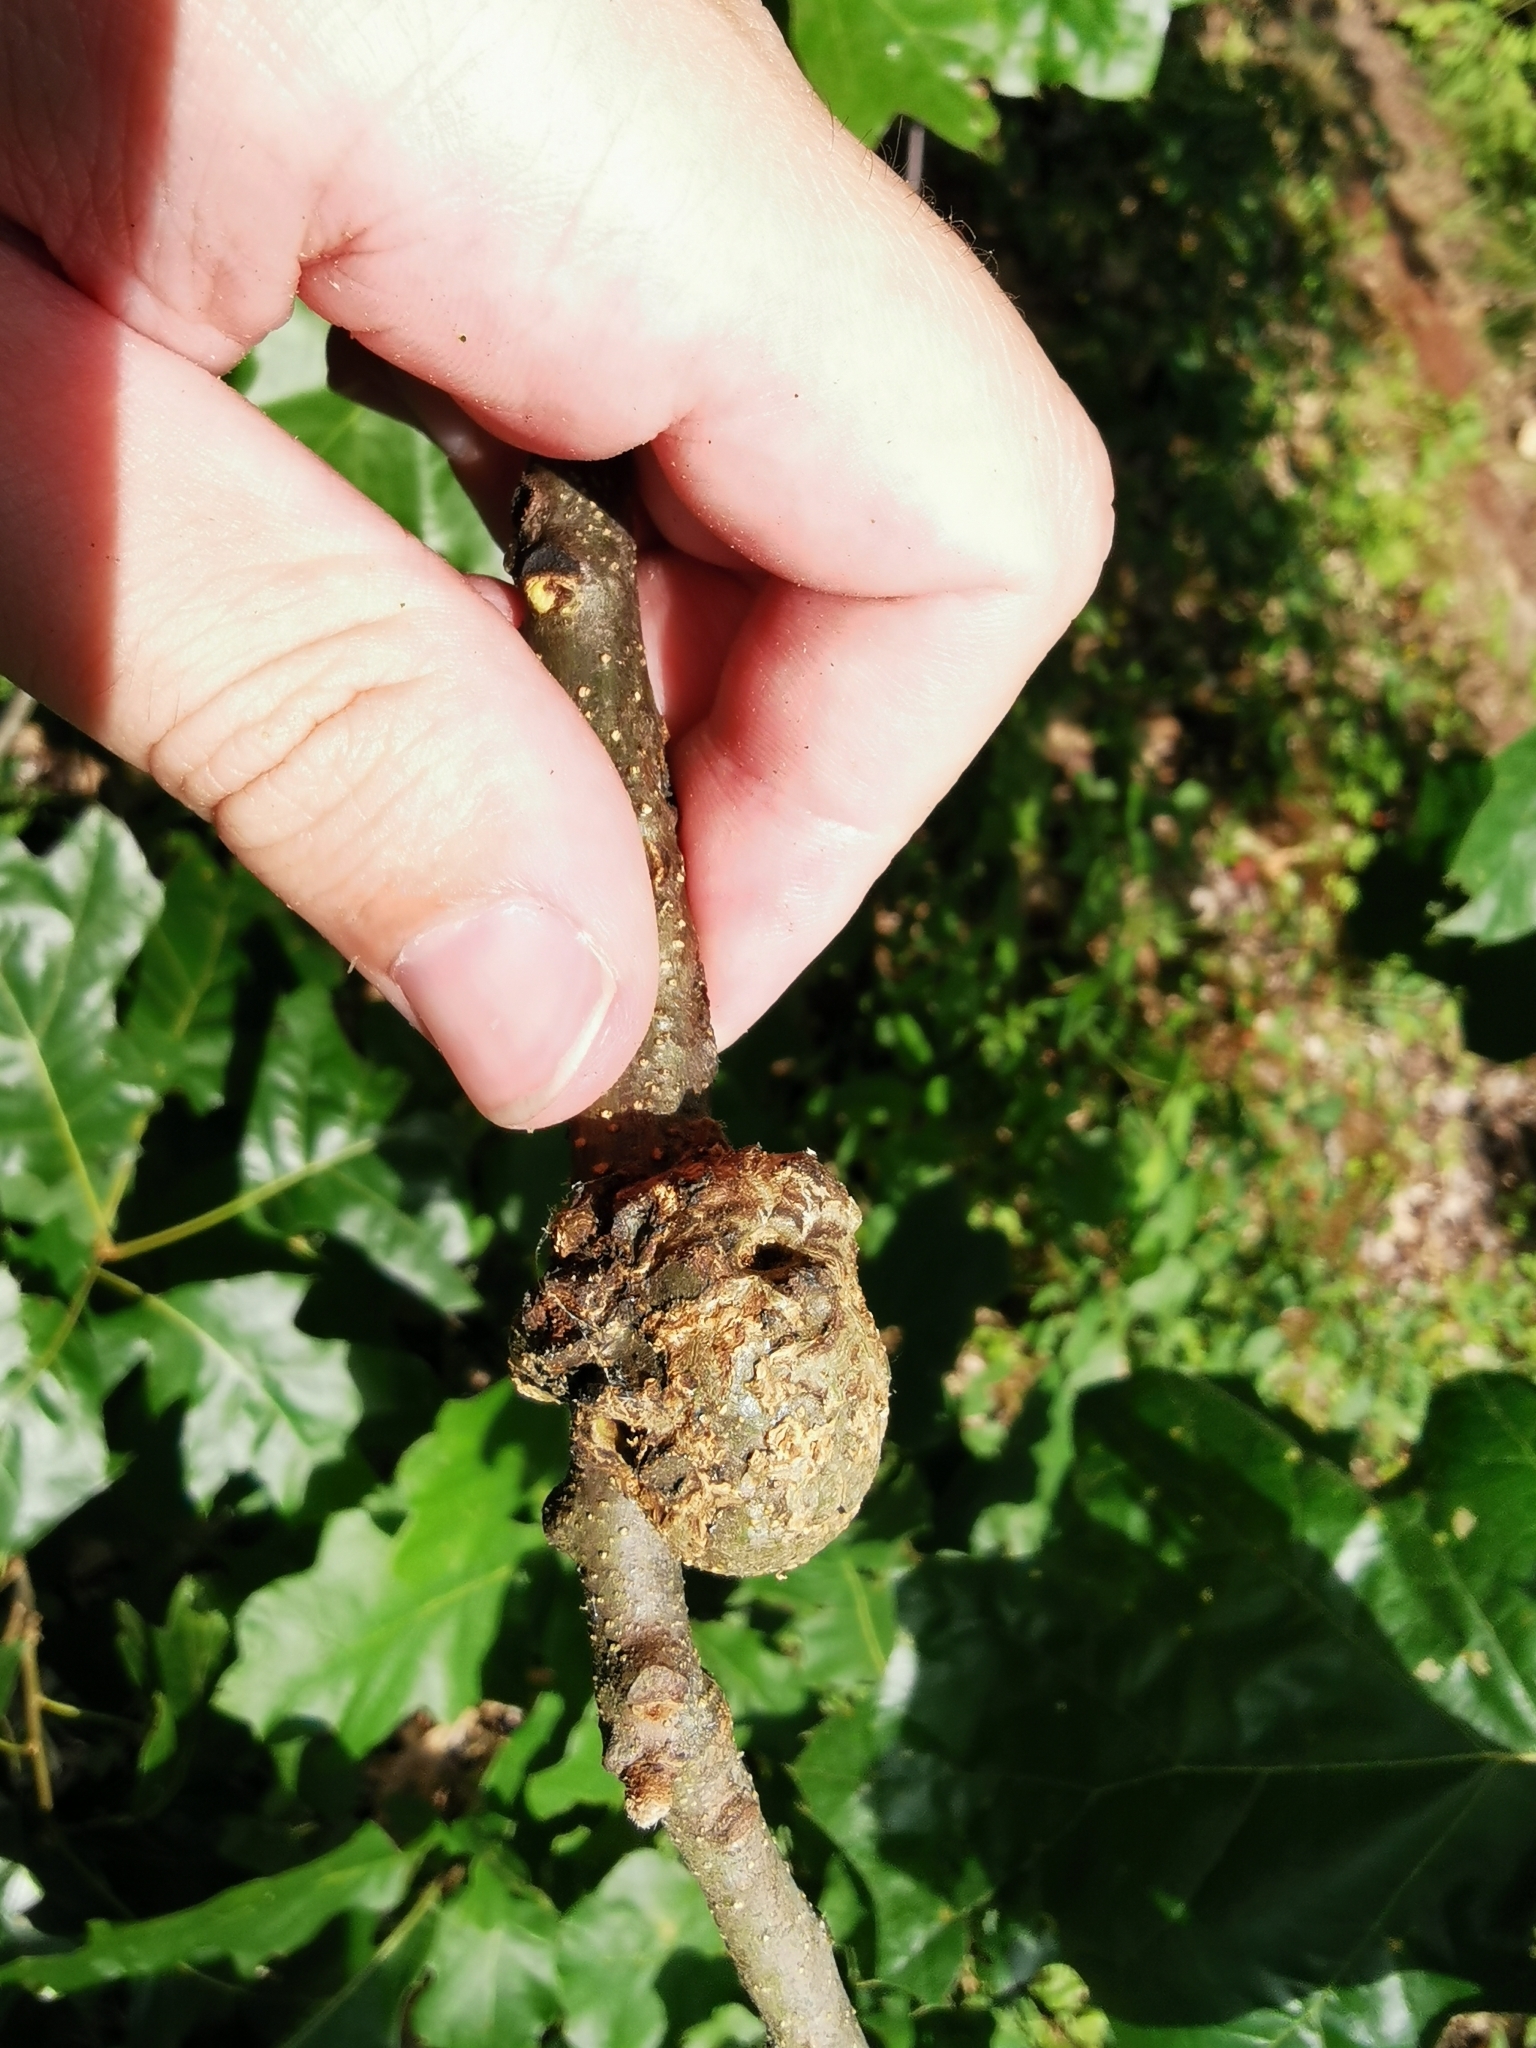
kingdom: Animalia
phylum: Arthropoda
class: Insecta
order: Hymenoptera
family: Cynipidae
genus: Callirhytis
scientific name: Callirhytis
